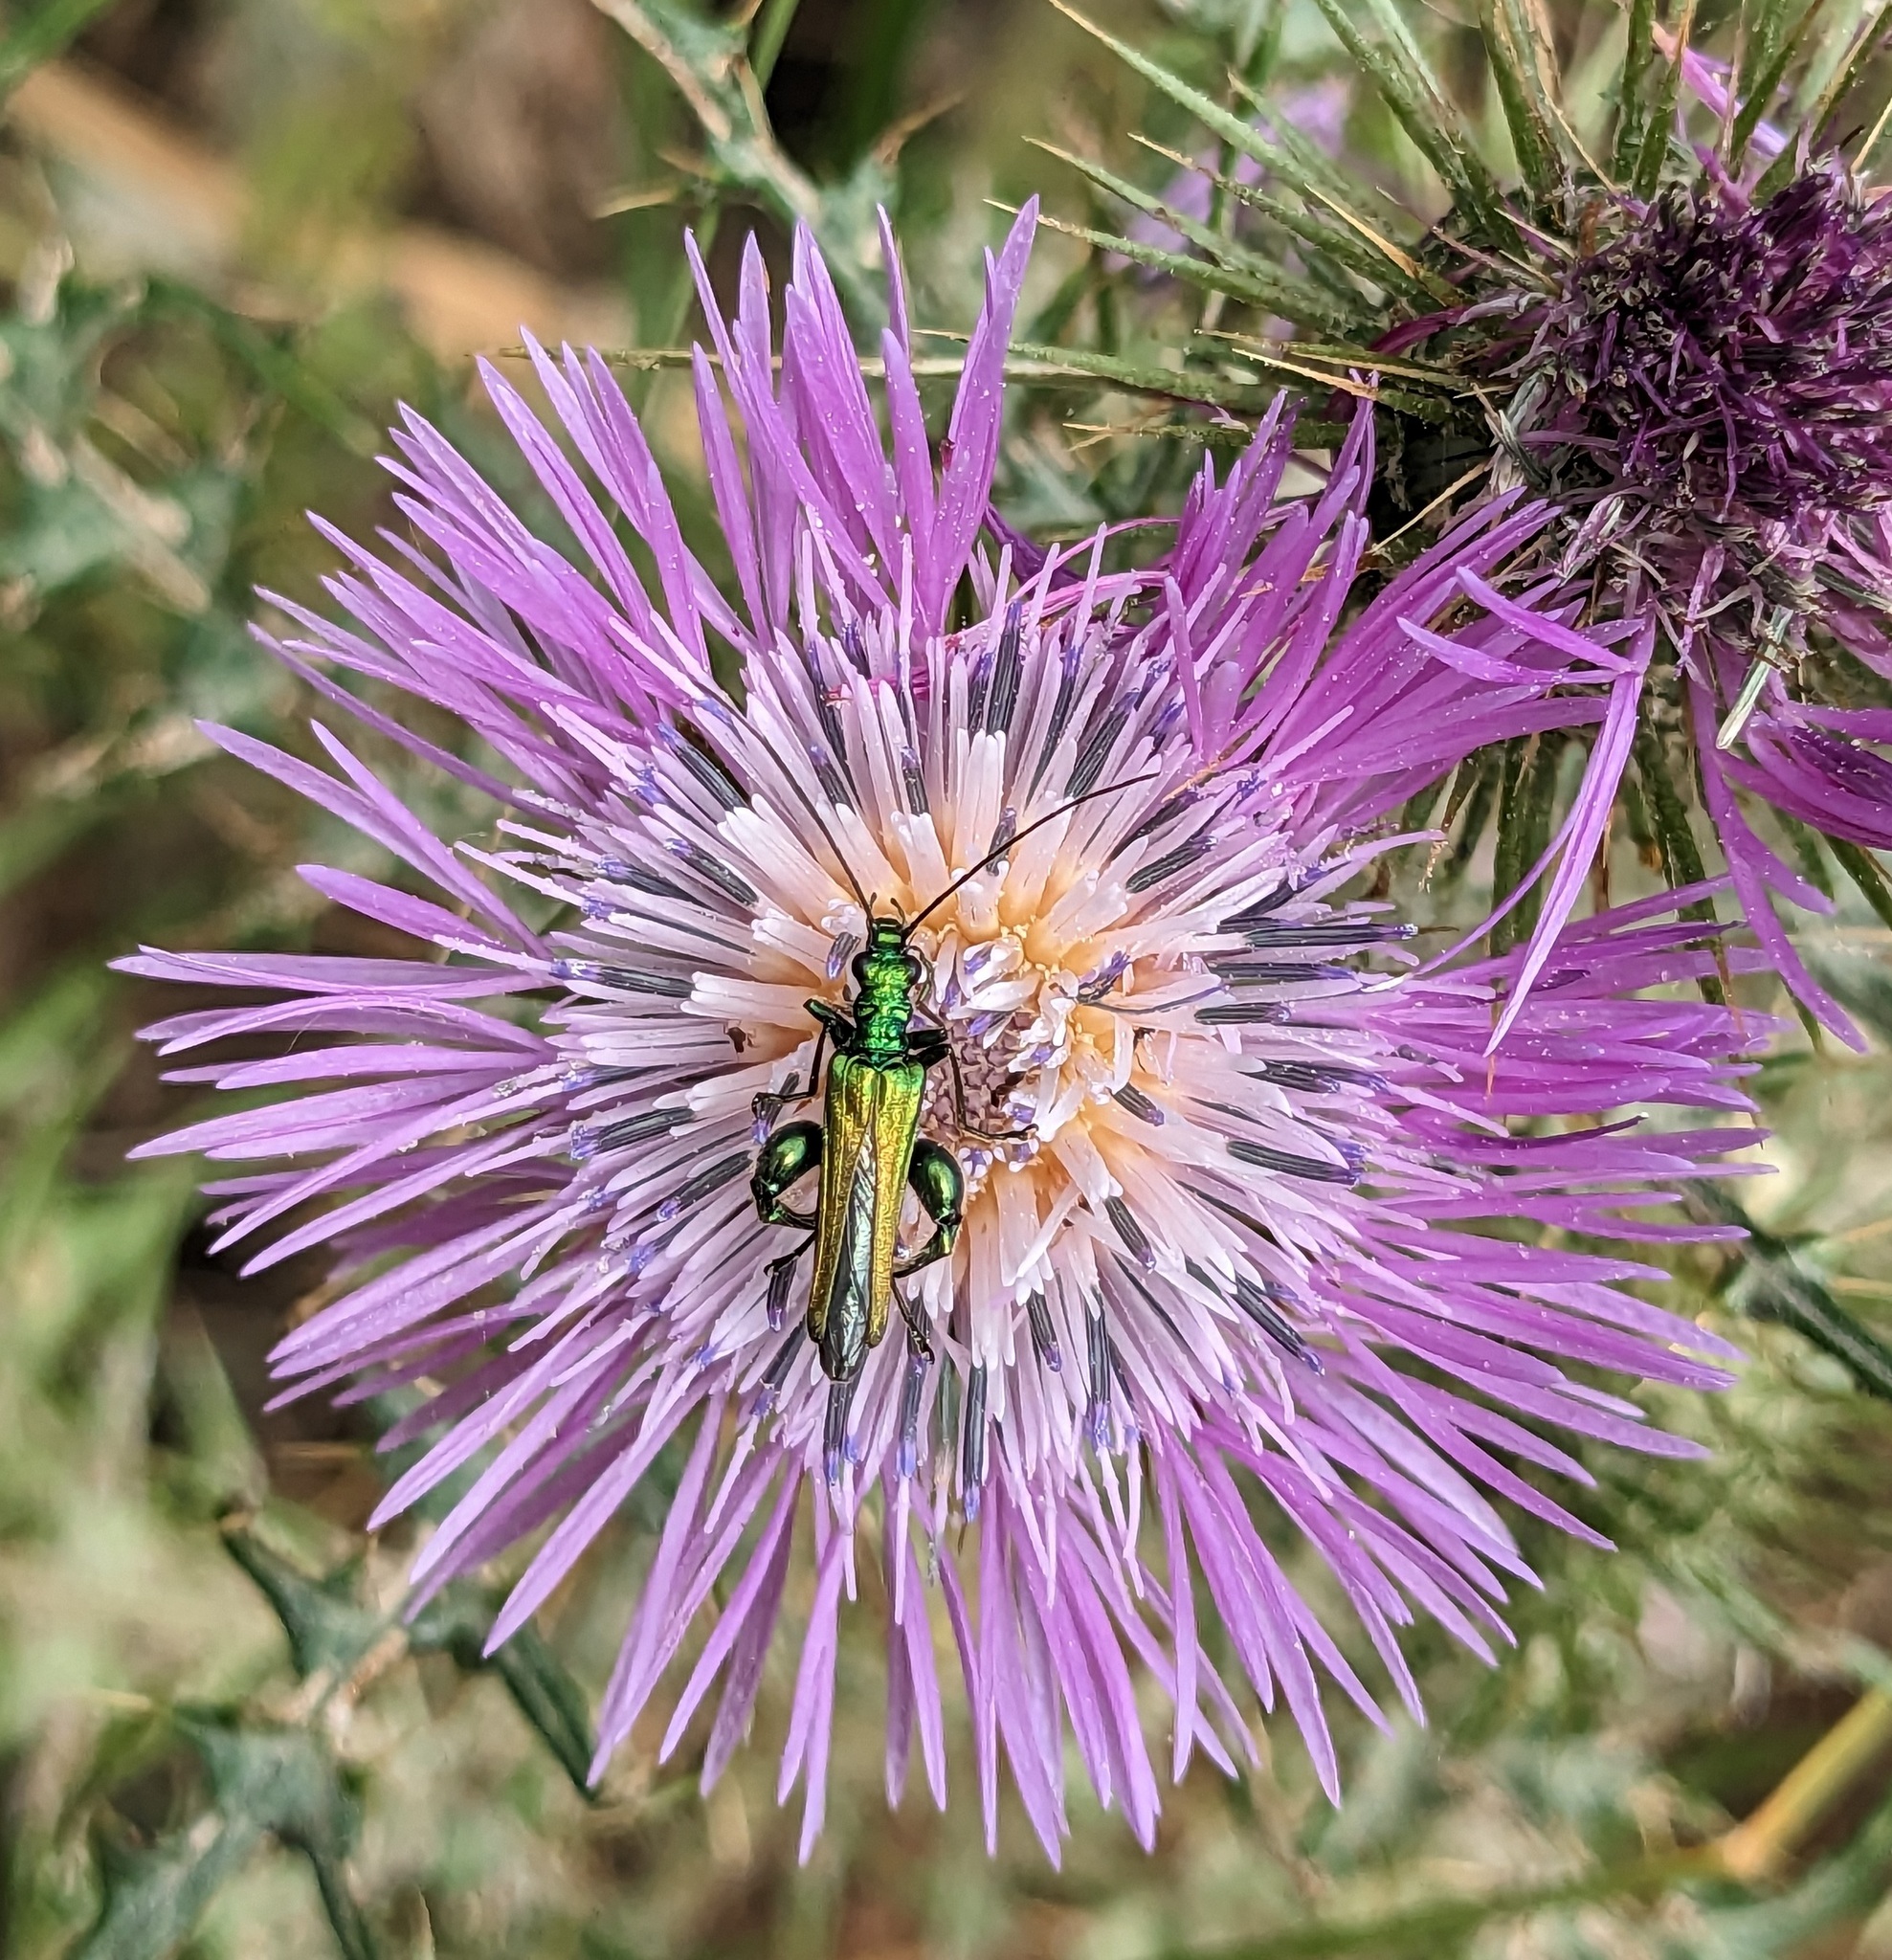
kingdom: Animalia
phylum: Arthropoda
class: Insecta
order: Coleoptera
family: Oedemeridae
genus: Oedemera
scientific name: Oedemera nobilis
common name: Swollen-thighed beetle
